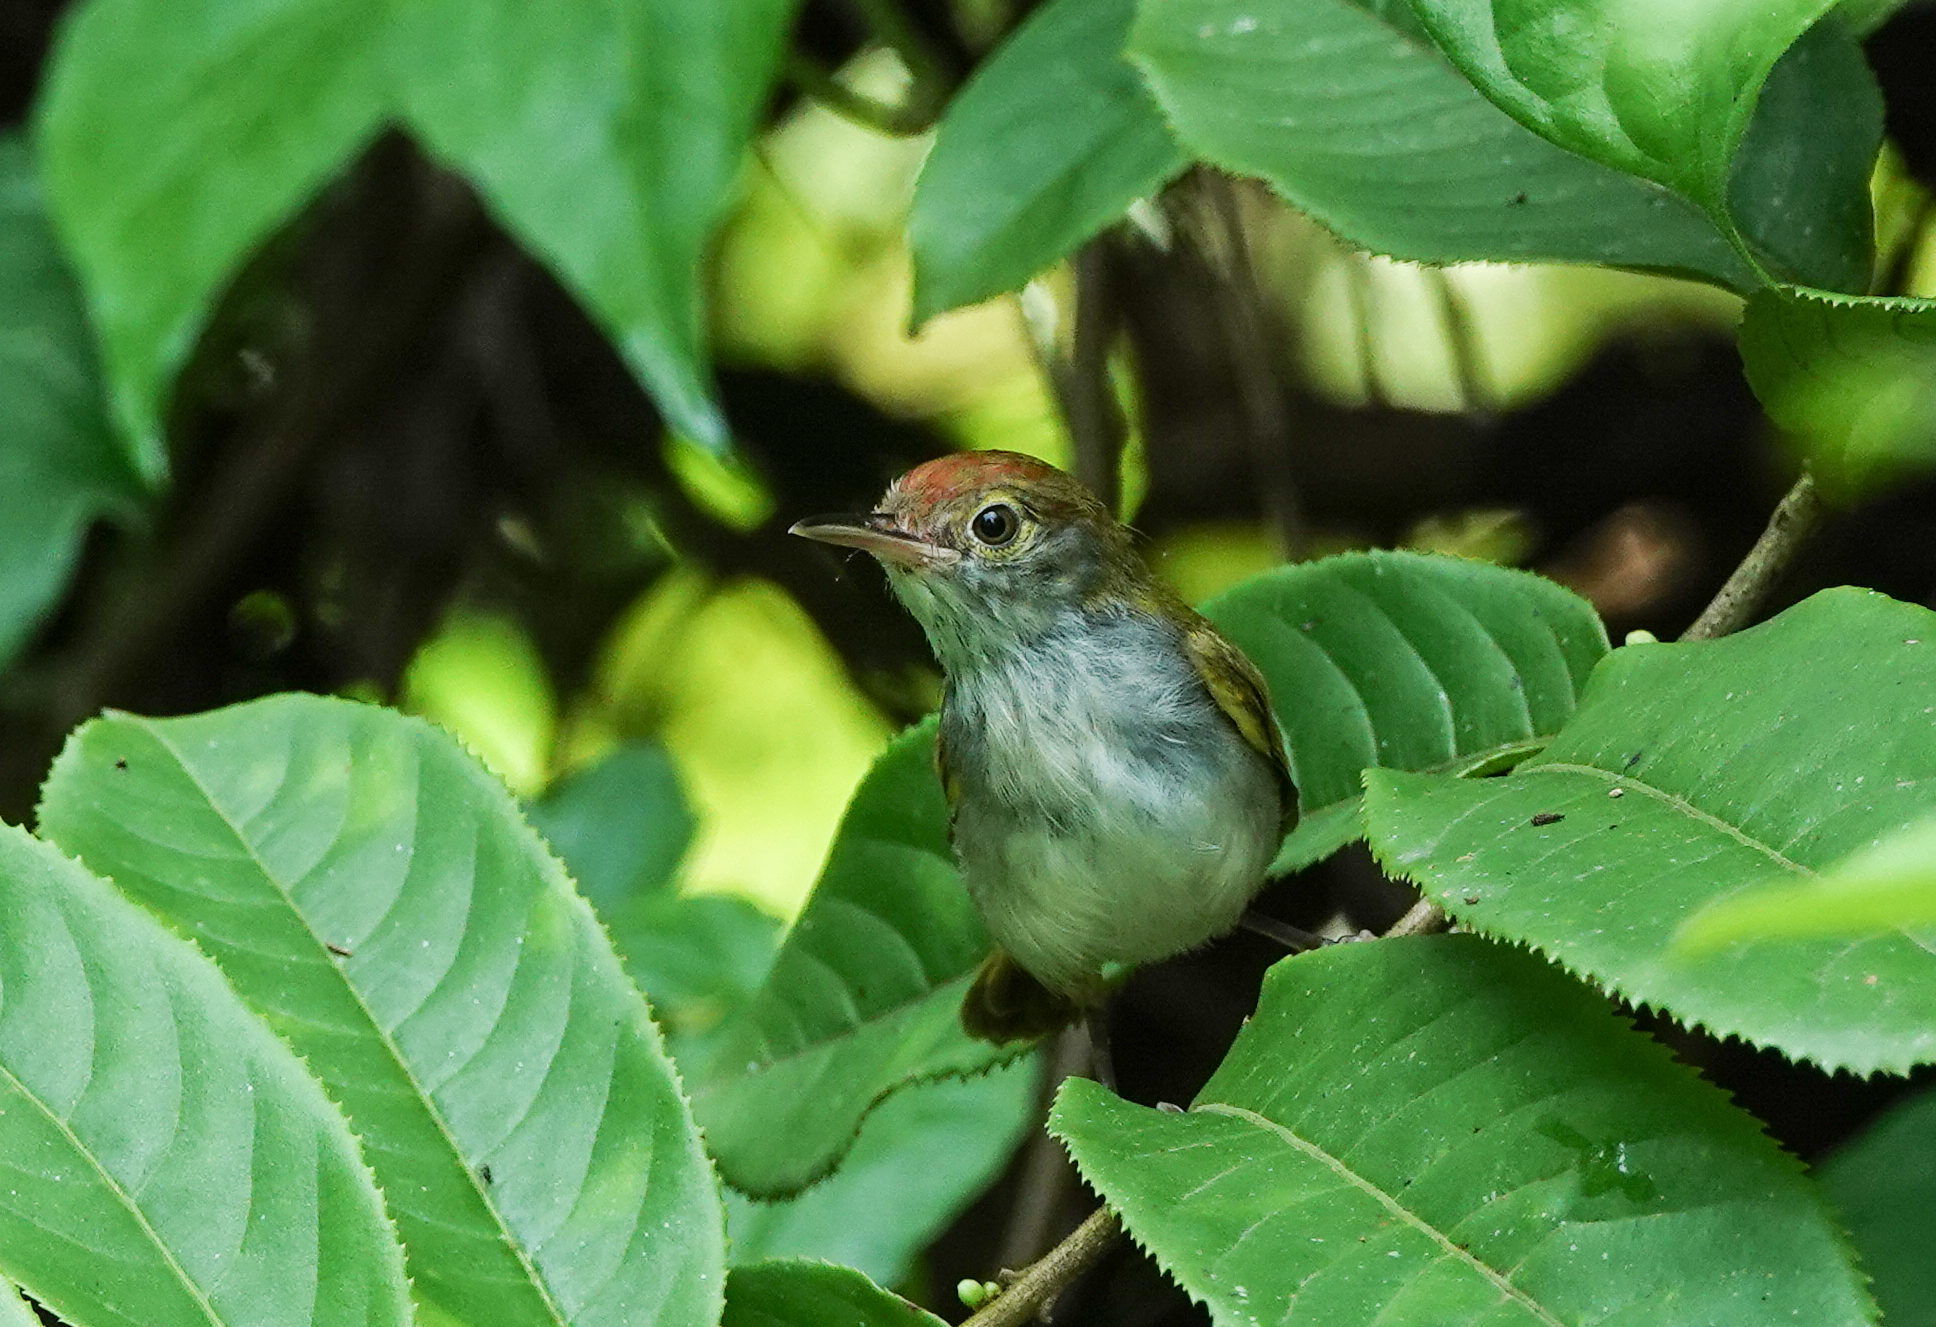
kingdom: Animalia
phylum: Chordata
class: Aves
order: Passeriformes
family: Cisticolidae
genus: Orthotomus
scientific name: Orthotomus atrogularis
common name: Dark-necked tailorbird
